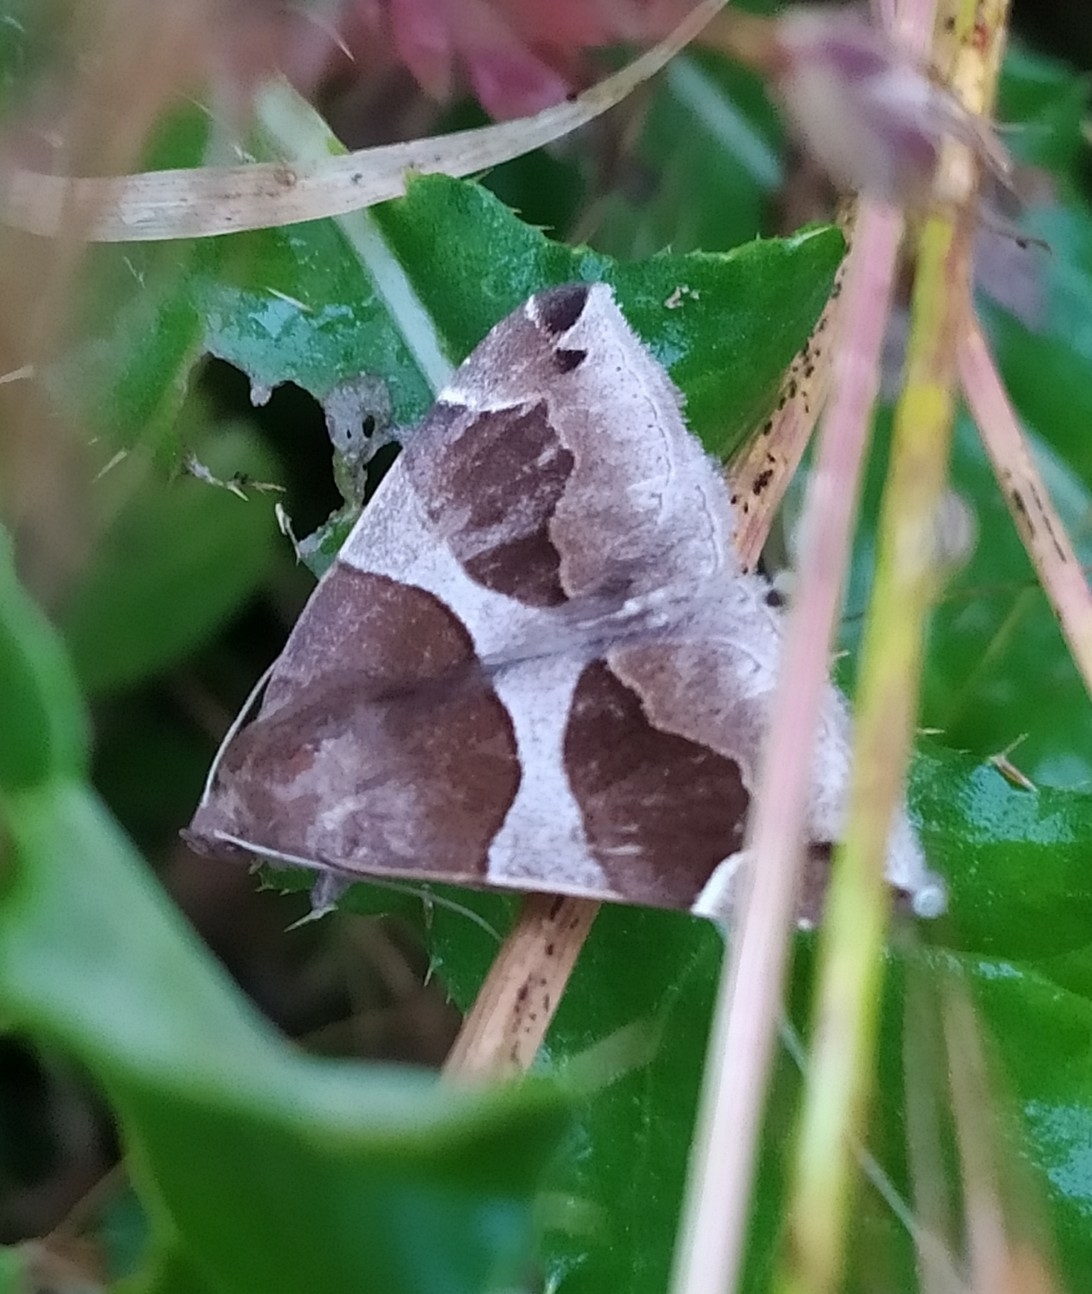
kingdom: Animalia
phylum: Arthropoda
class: Insecta
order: Lepidoptera
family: Erebidae
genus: Dysgonia
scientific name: Dysgonia algira
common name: Passenger
